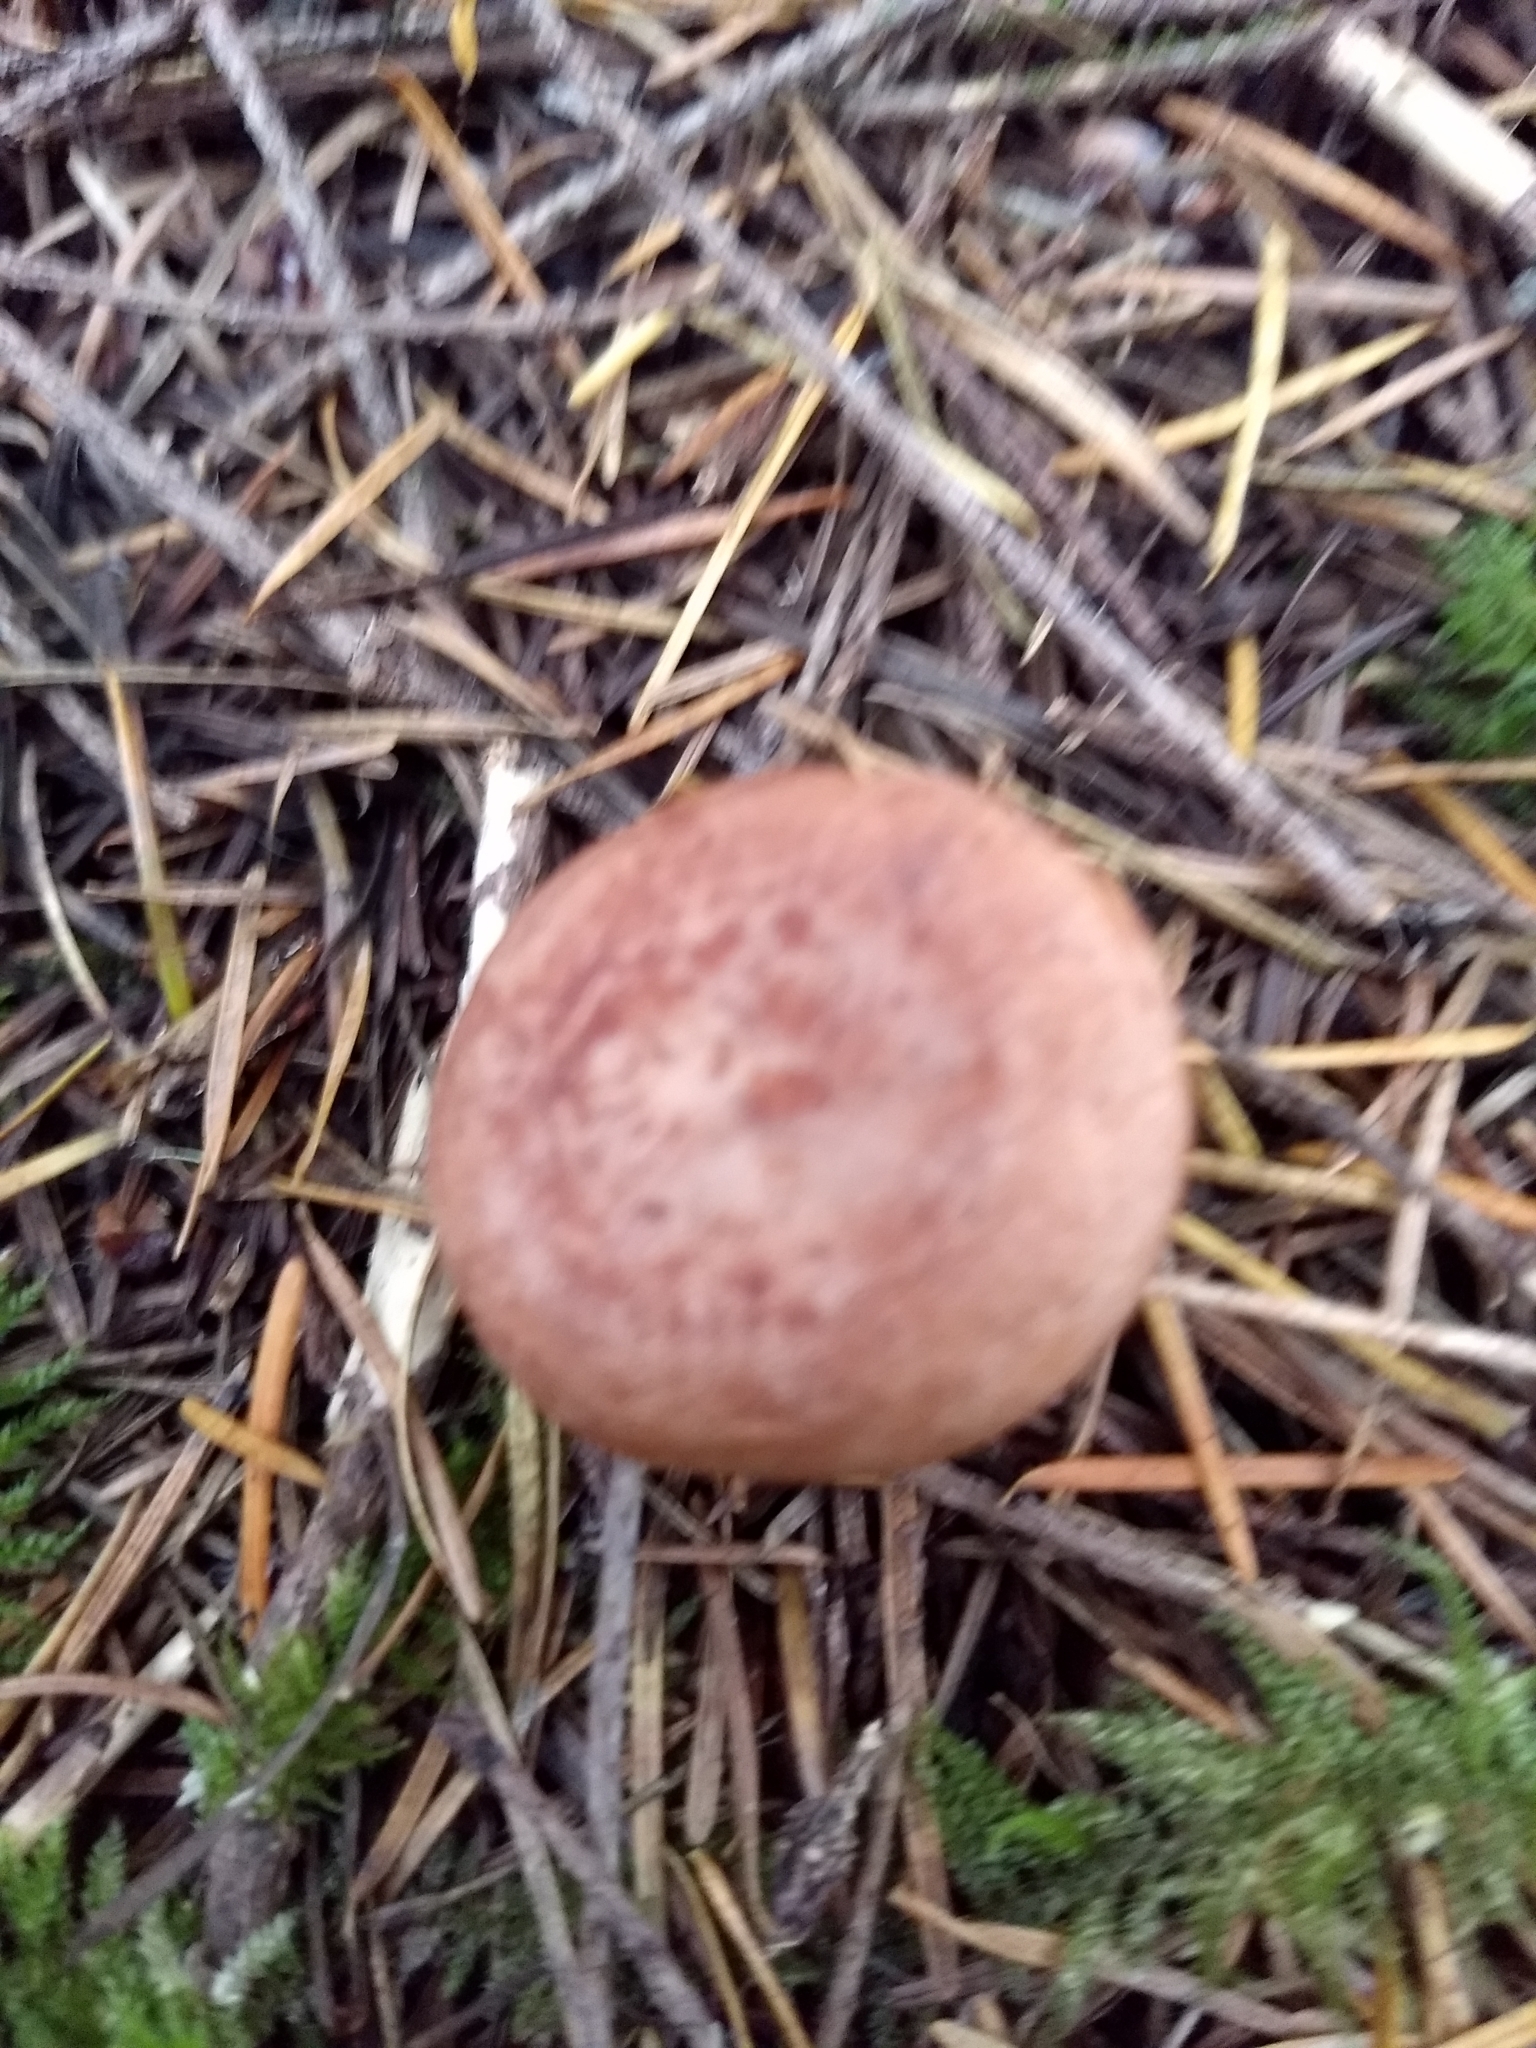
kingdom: Fungi
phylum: Basidiomycota
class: Agaricomycetes
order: Russulales
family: Russulaceae
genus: Lactarius
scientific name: Lactarius xanthogalactus
